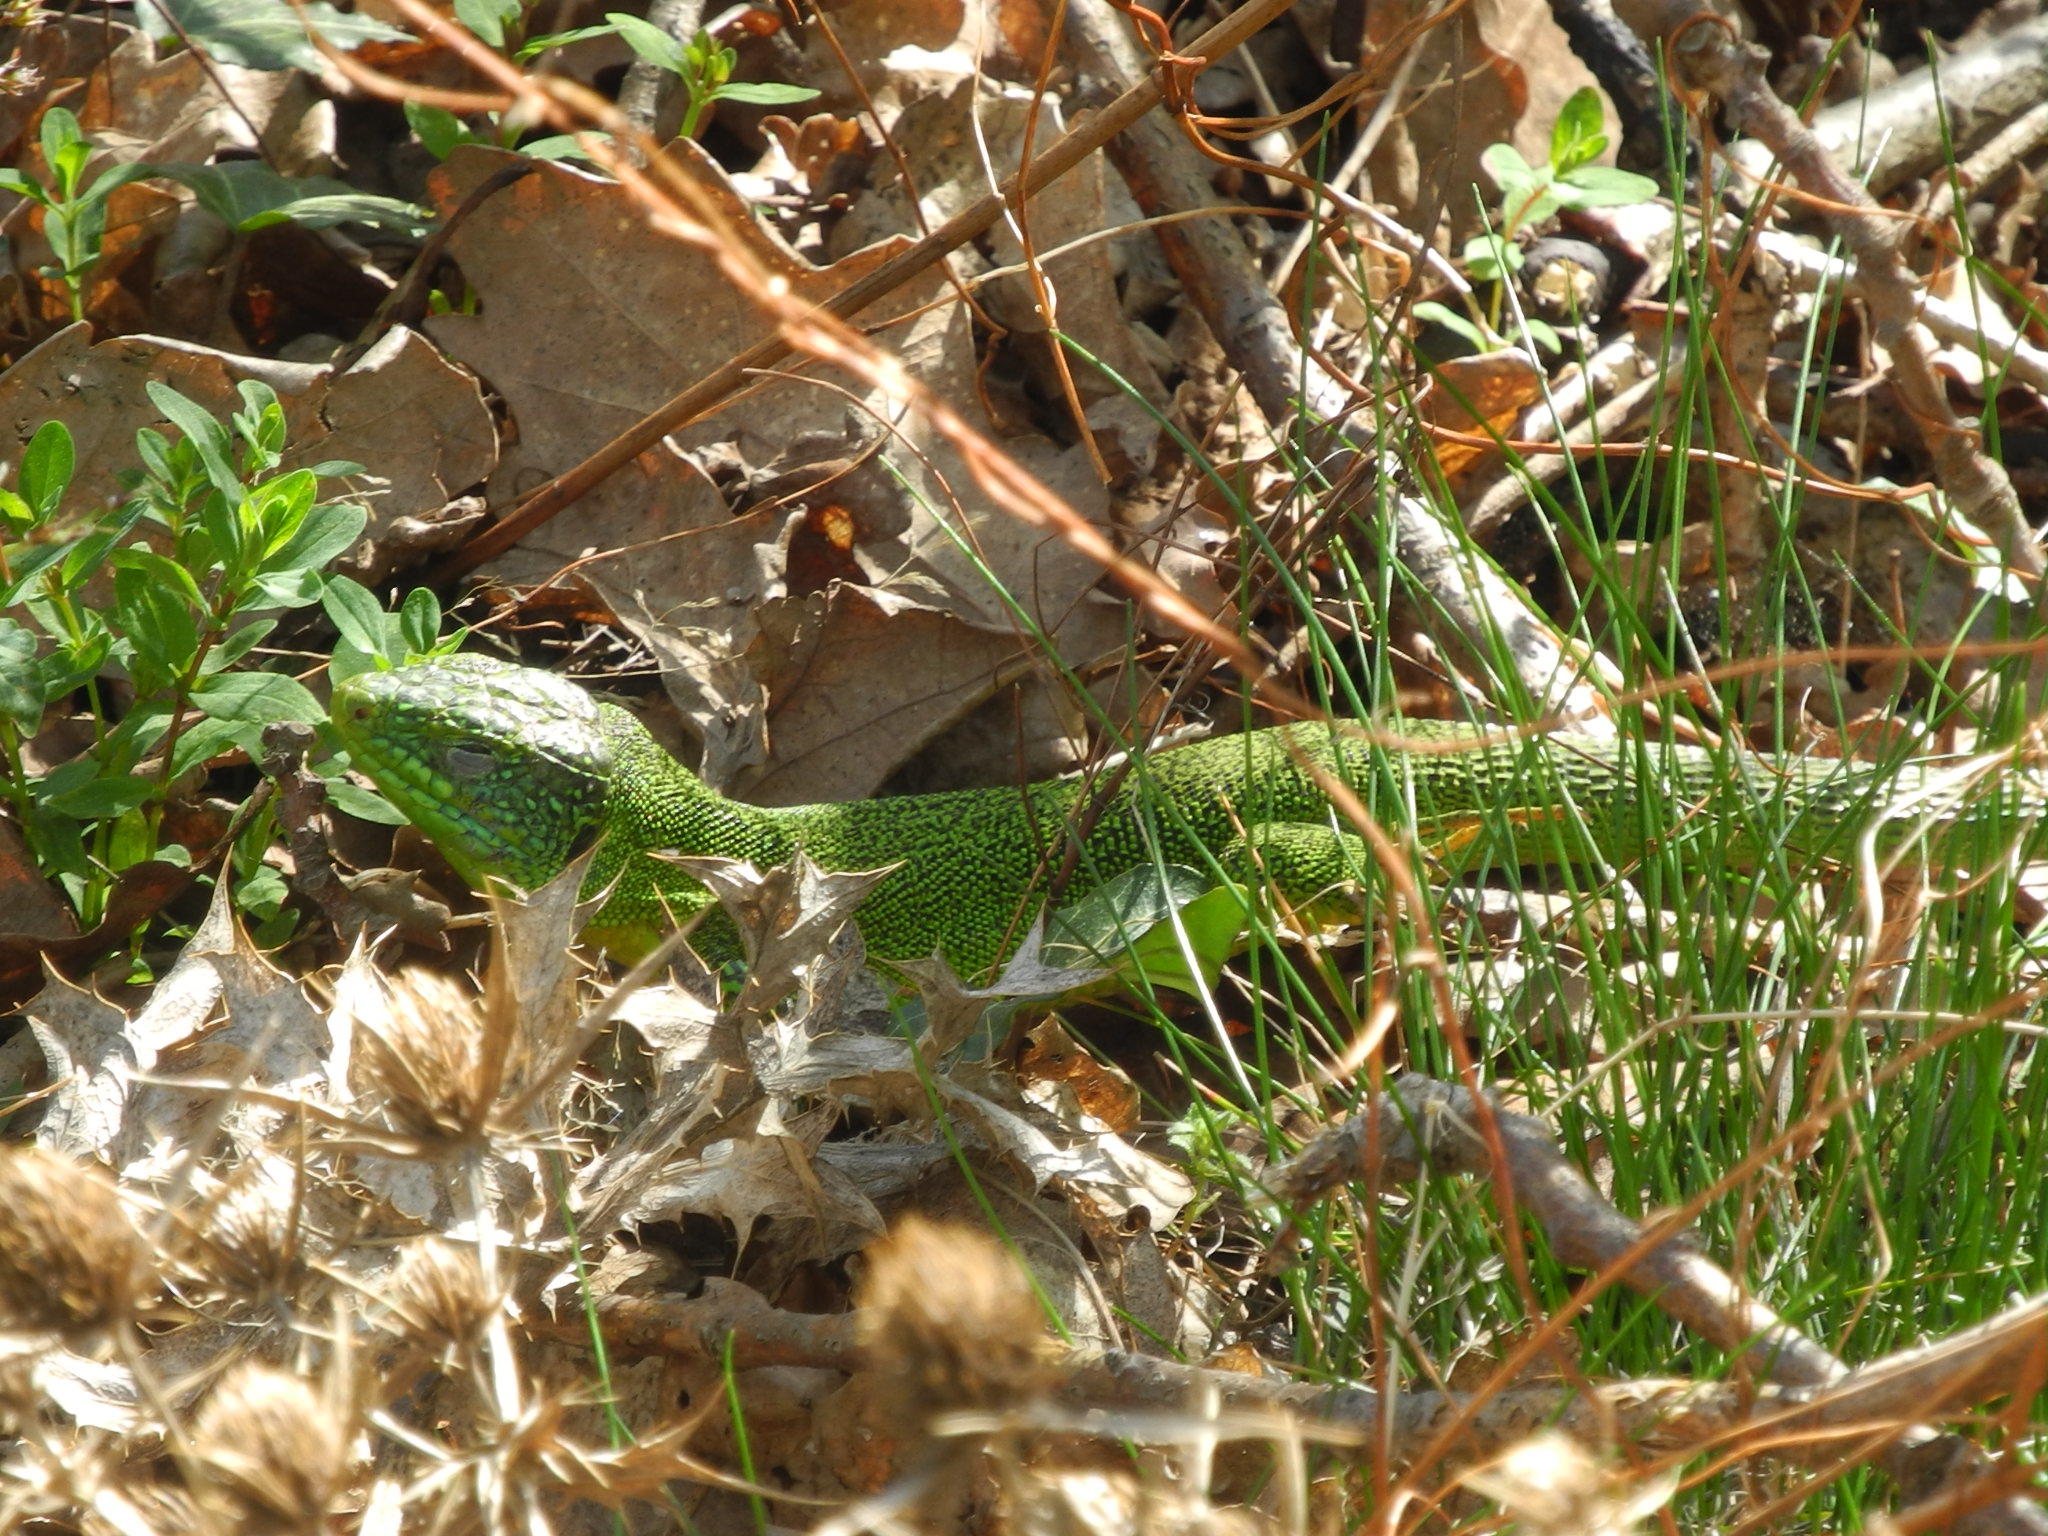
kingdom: Animalia
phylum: Chordata
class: Squamata
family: Lacertidae
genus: Lacerta
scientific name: Lacerta bilineata
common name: Western green lizard
